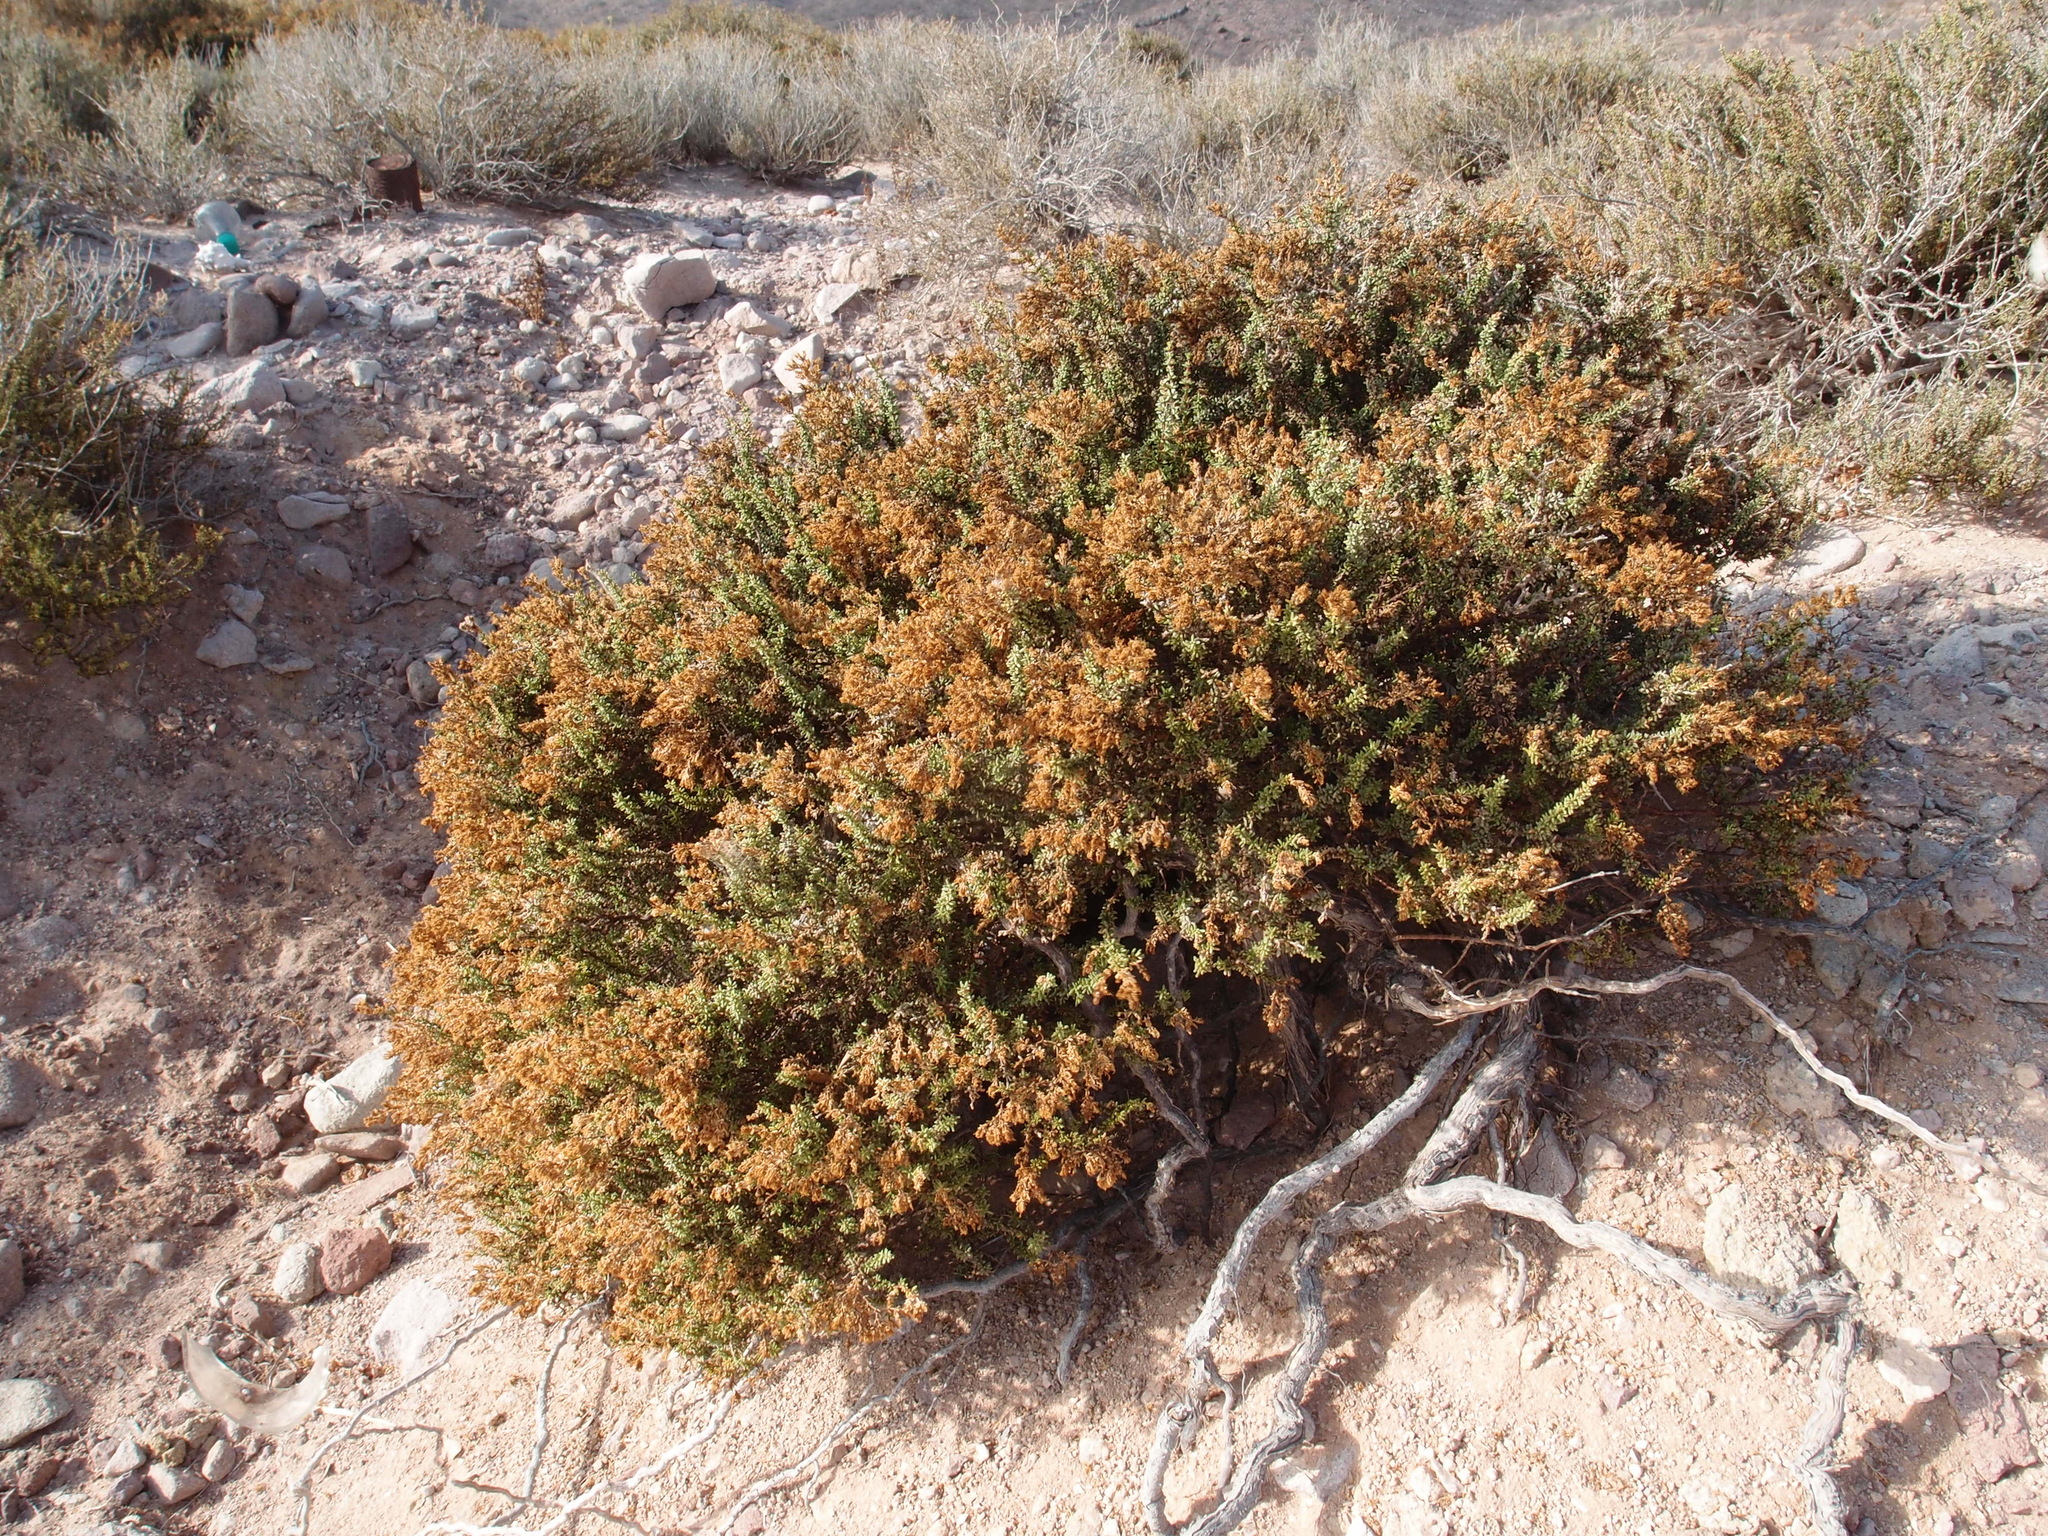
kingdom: Plantae
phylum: Tracheophyta
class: Magnoliopsida
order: Caryophyllales
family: Frankeniaceae
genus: Frankenia
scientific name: Frankenia palmeri
